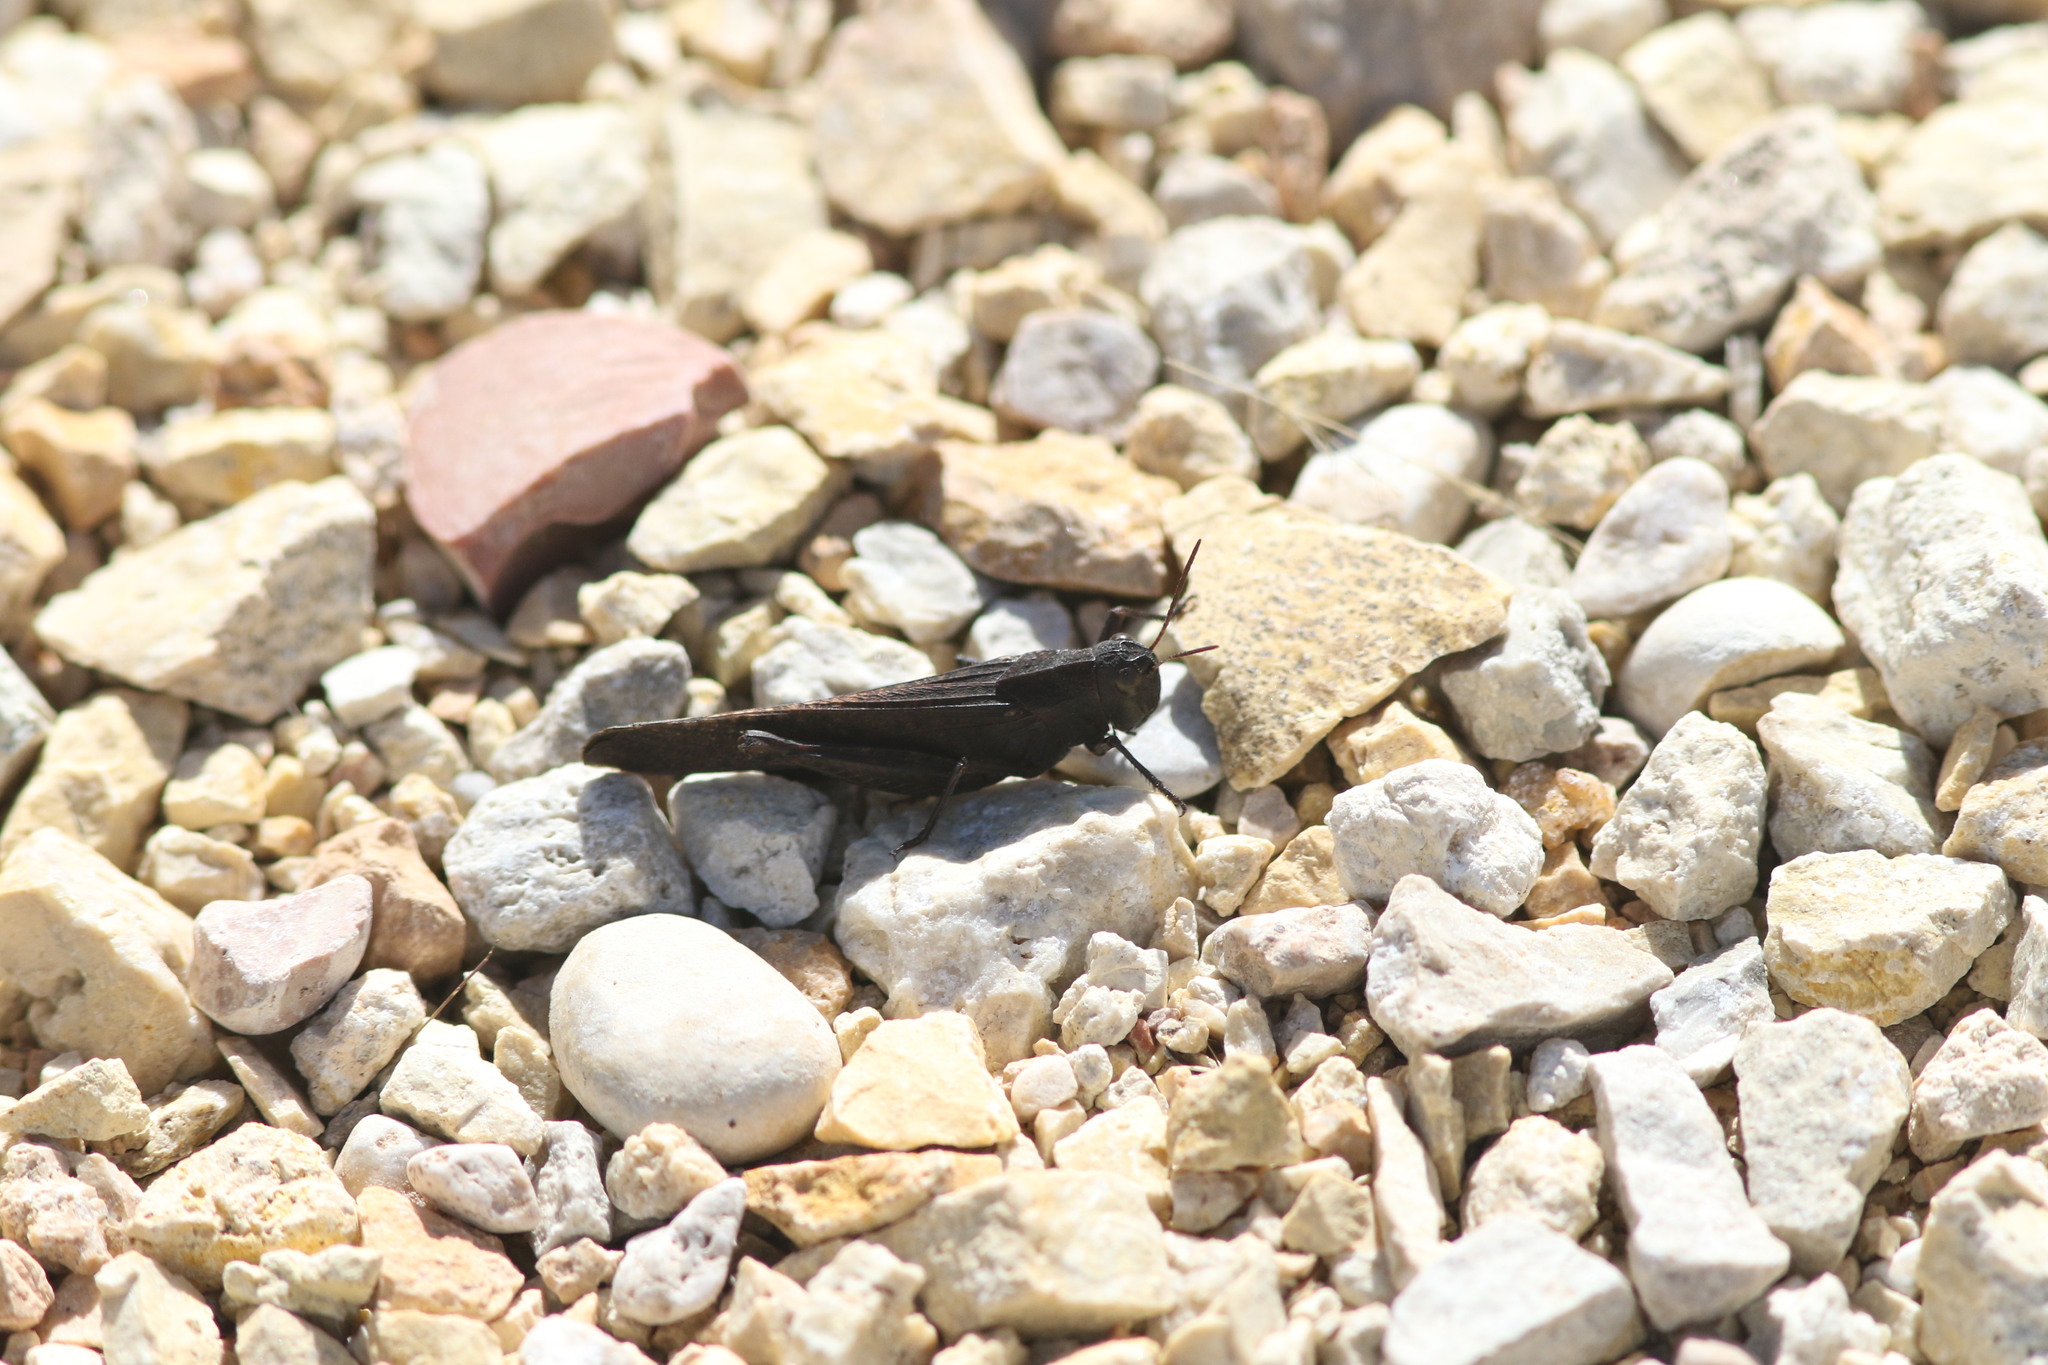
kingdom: Animalia
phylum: Arthropoda
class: Insecta
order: Orthoptera
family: Acrididae
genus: Arphia
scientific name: Arphia pseudo-nietana
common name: Red-winged grasshopper
